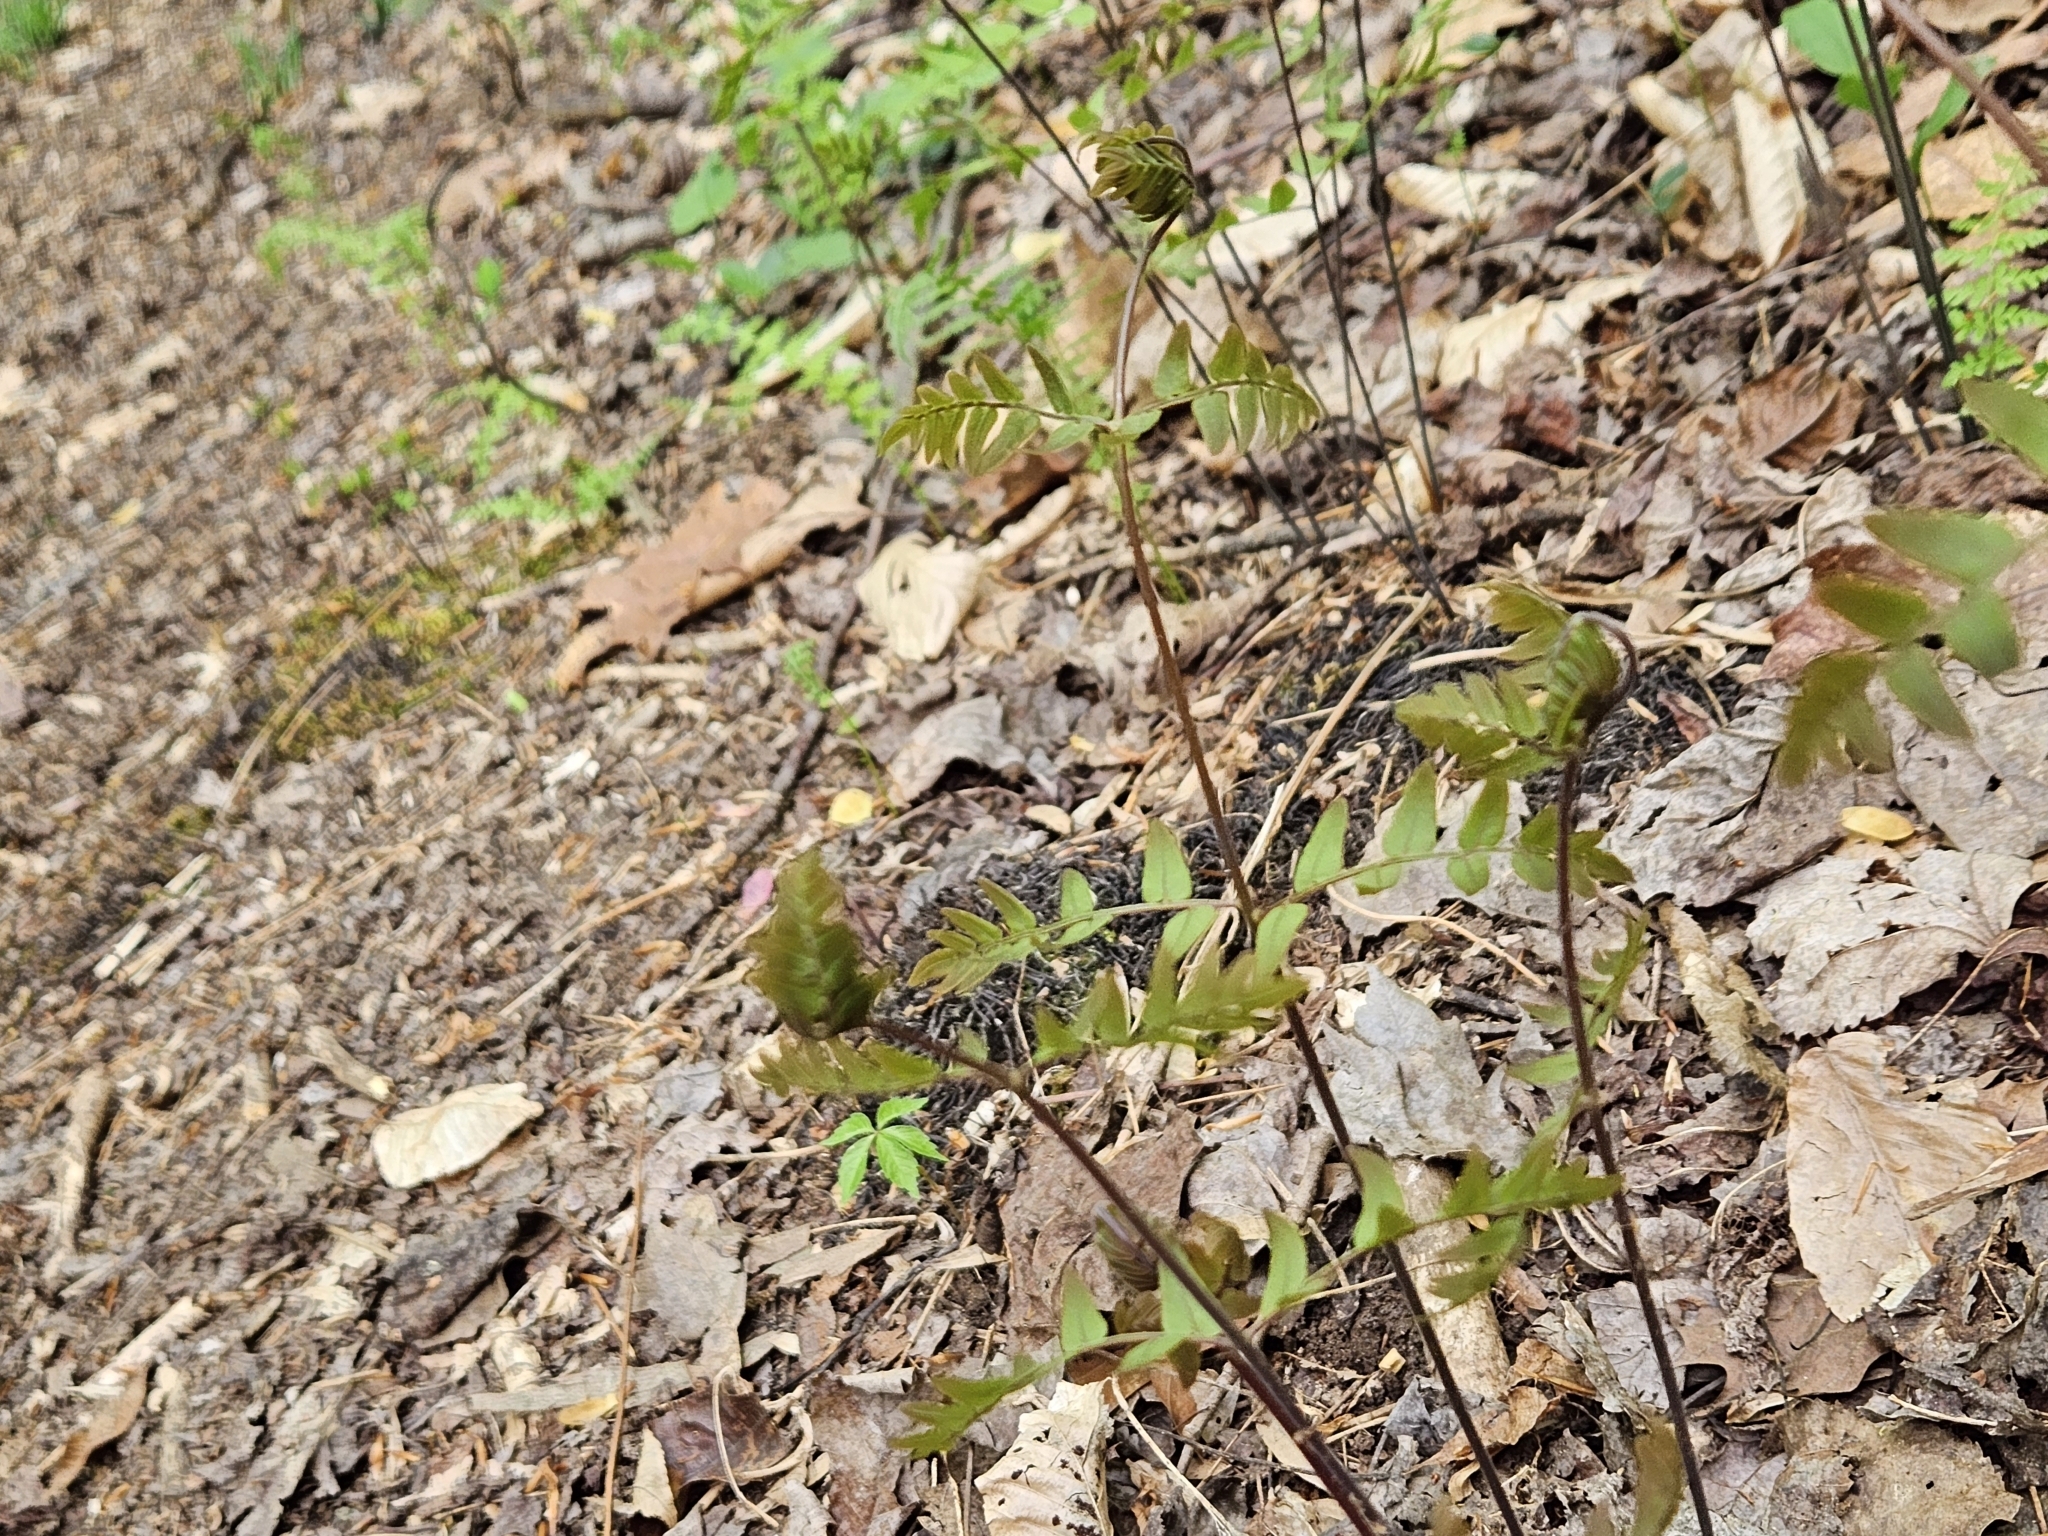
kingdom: Plantae
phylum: Tracheophyta
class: Polypodiopsida
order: Osmundales
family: Osmundaceae
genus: Osmunda
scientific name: Osmunda spectabilis
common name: American royal fern
